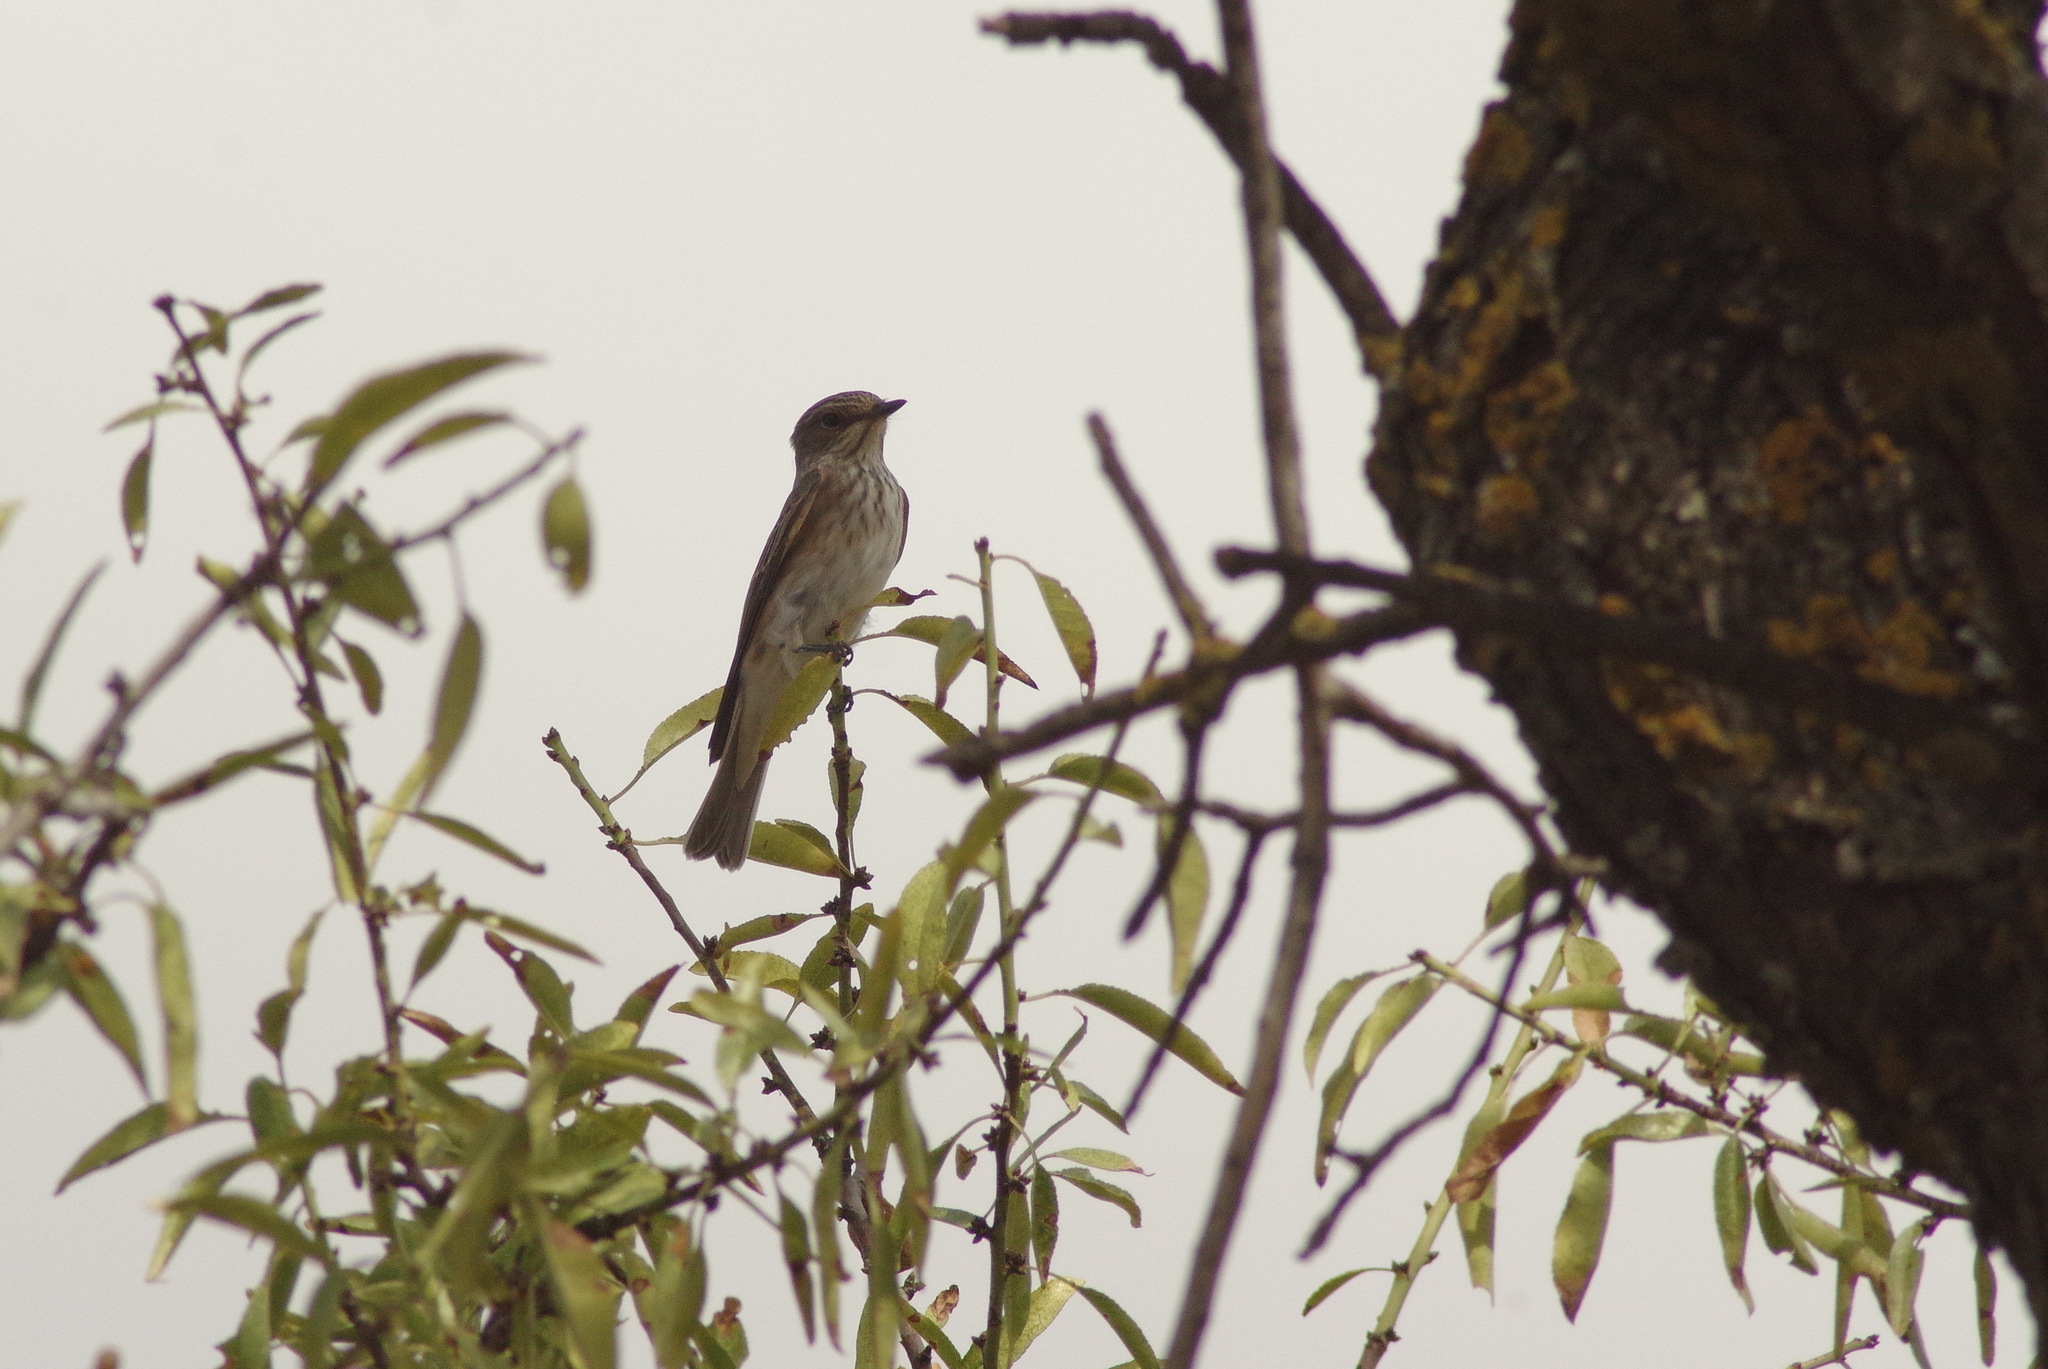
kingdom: Animalia
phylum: Chordata
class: Aves
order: Passeriformes
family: Muscicapidae
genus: Muscicapa
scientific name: Muscicapa striata
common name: Spotted flycatcher
